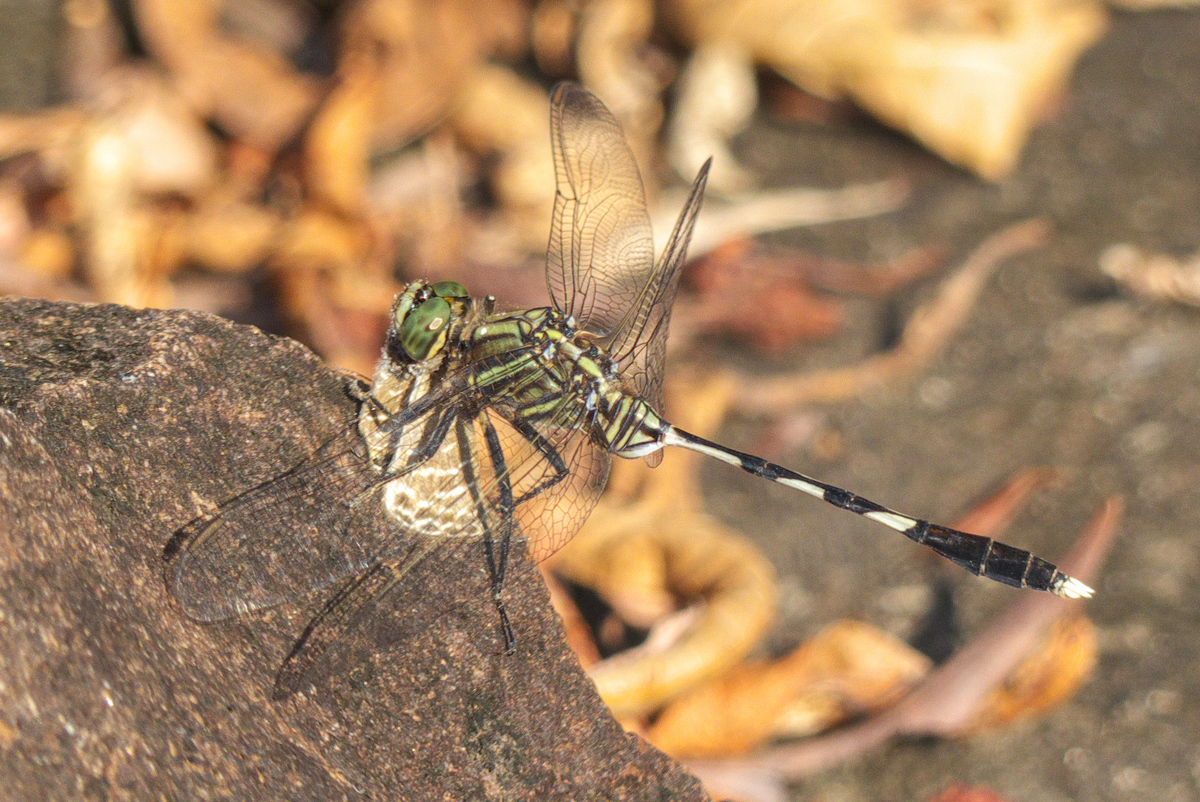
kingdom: Animalia
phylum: Arthropoda
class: Insecta
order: Odonata
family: Libellulidae
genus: Orthetrum
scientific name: Orthetrum sabina
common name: Slender skimmer
